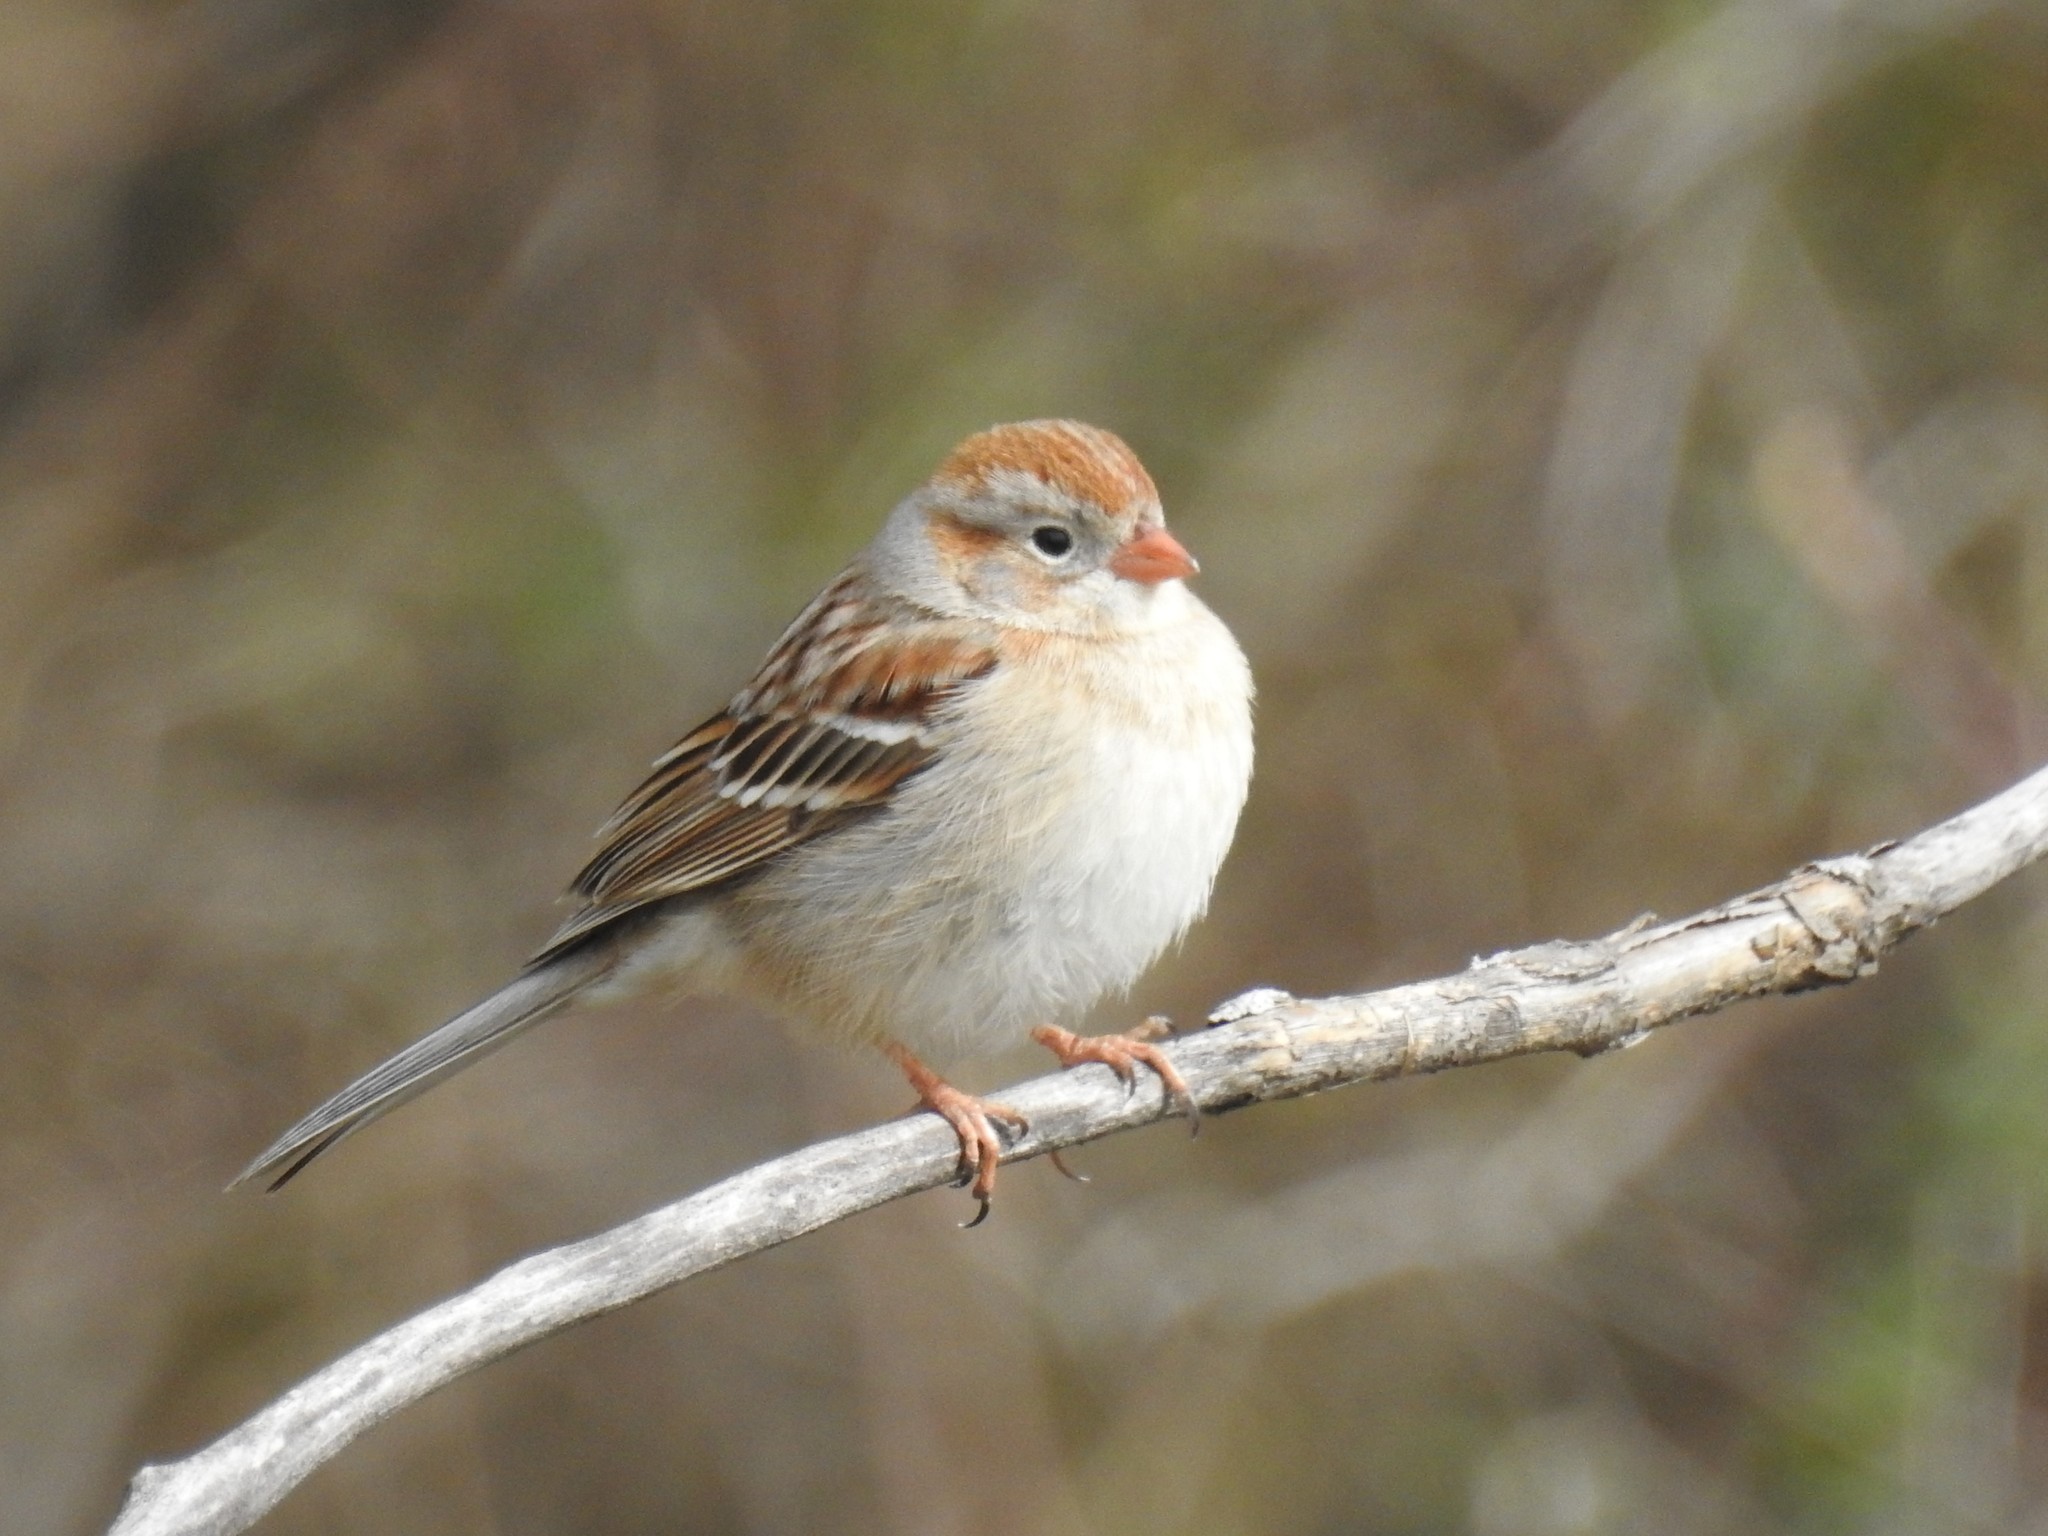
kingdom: Animalia
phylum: Chordata
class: Aves
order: Passeriformes
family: Passerellidae
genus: Spizella
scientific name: Spizella pusilla
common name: Field sparrow
